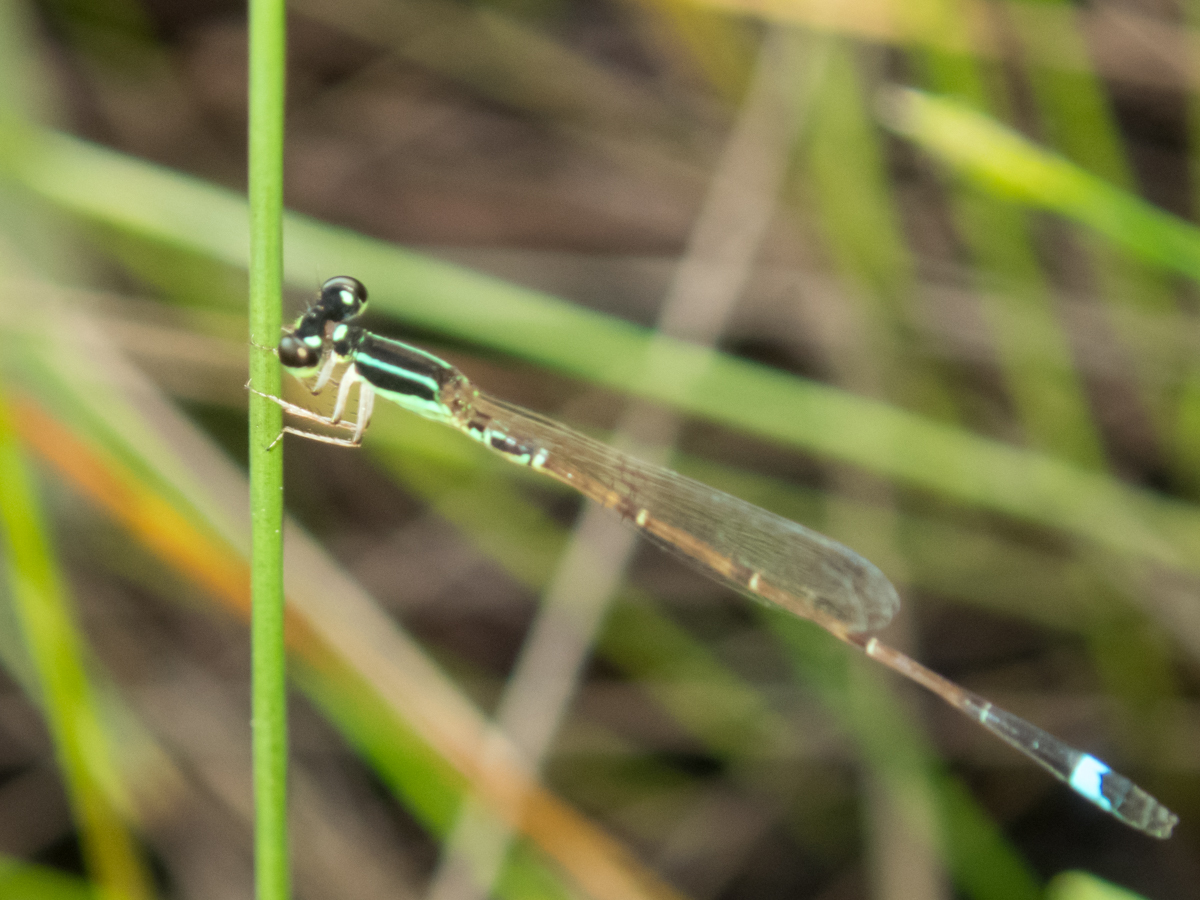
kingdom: Animalia
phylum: Arthropoda
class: Insecta
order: Odonata
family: Coenagrionidae
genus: Mortonagrion
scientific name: Mortonagrion falcatum
